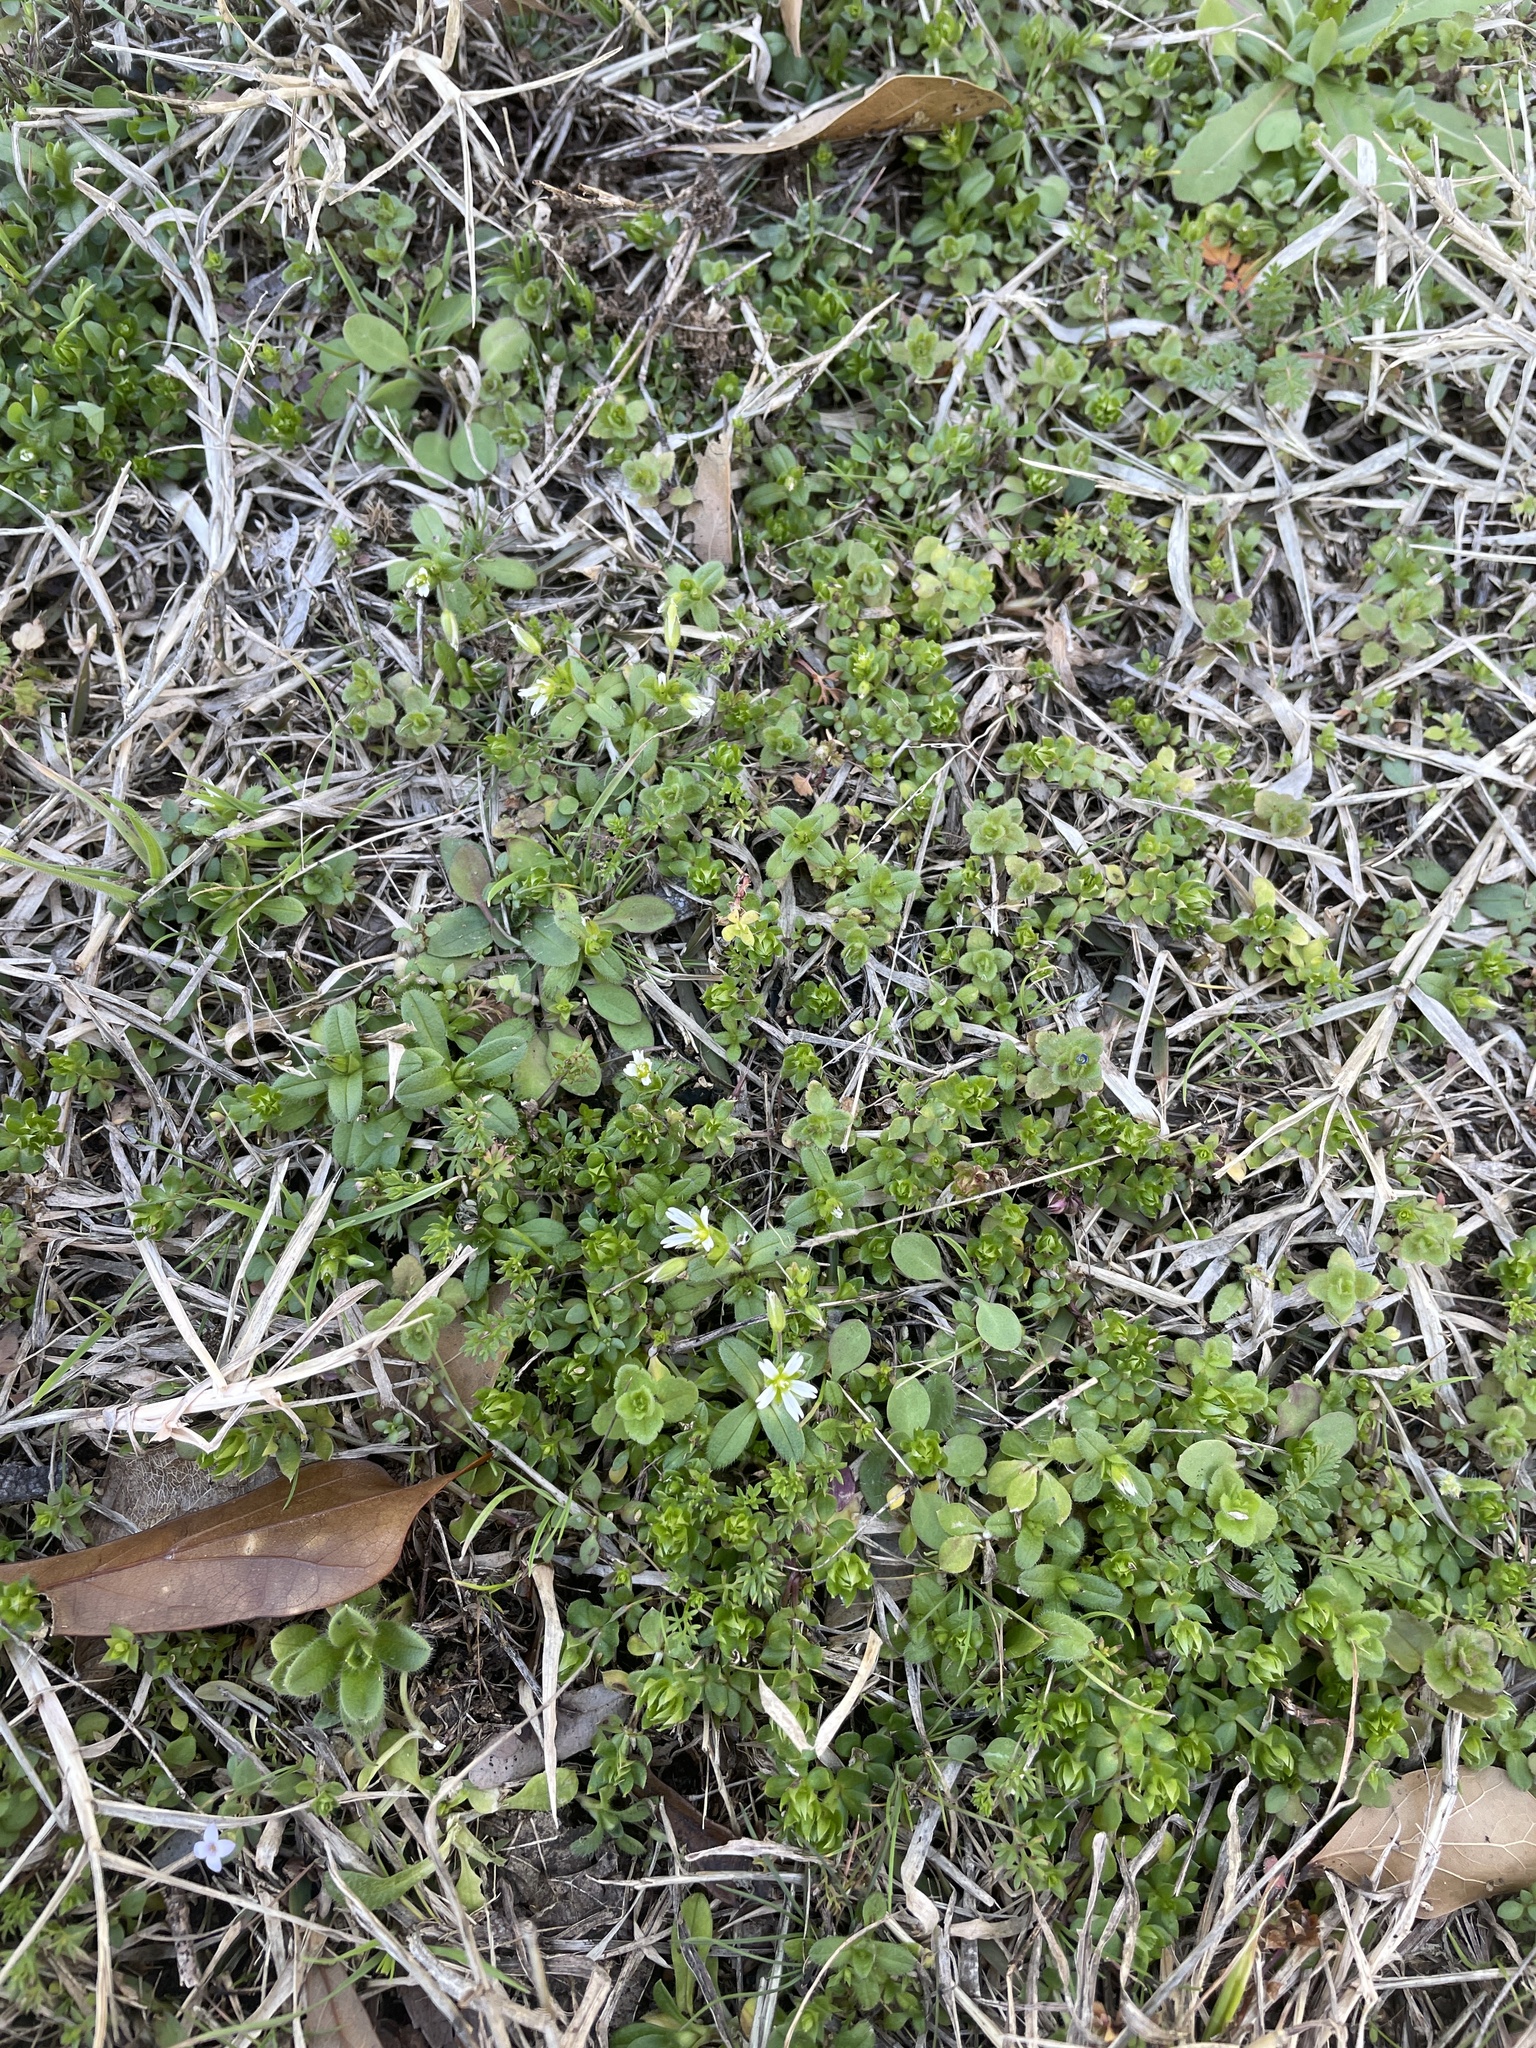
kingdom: Plantae
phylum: Tracheophyta
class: Magnoliopsida
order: Caryophyllales
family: Caryophyllaceae
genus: Cerastium
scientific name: Cerastium glomeratum
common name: Sticky chickweed
